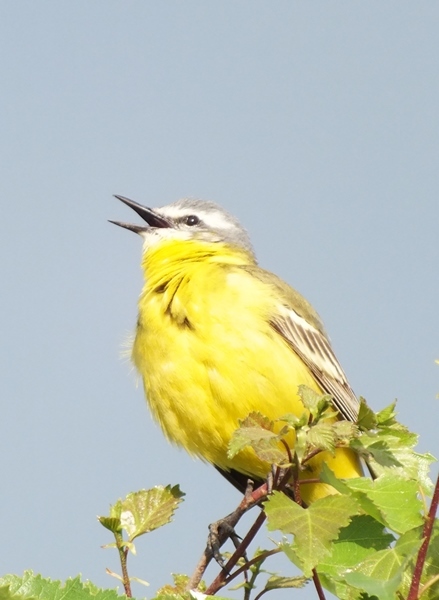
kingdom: Animalia
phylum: Chordata
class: Aves
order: Passeriformes
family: Motacillidae
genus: Motacilla
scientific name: Motacilla flava
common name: Western yellow wagtail
